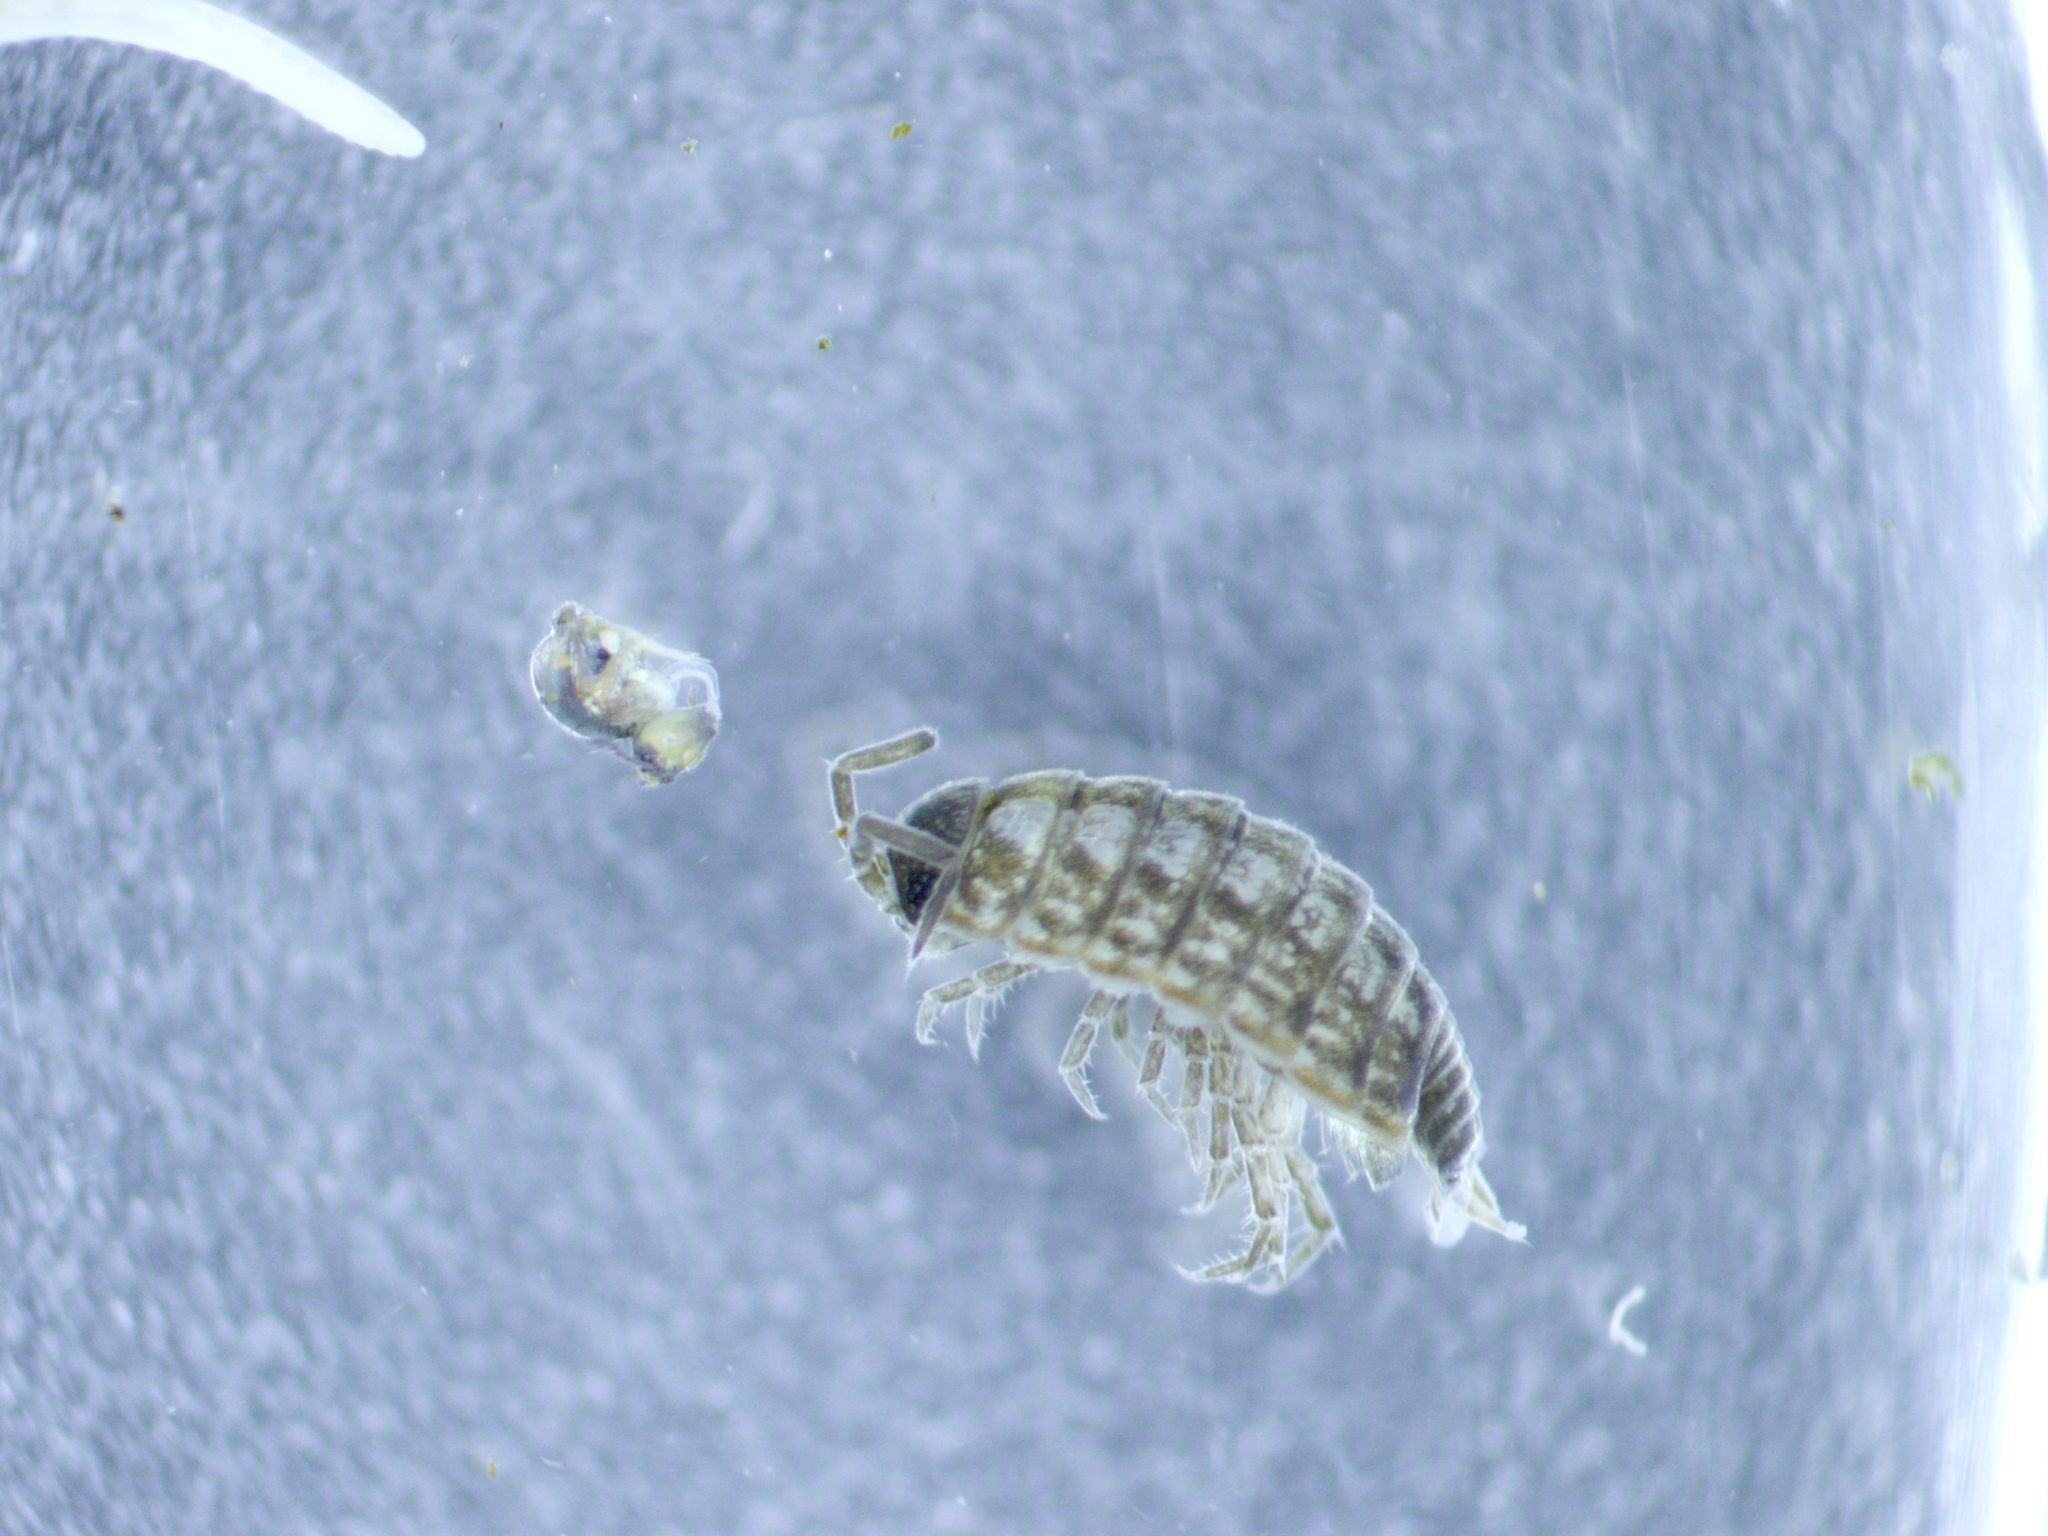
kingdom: Animalia
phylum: Arthropoda
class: Malacostraca
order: Isopoda
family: Philosciidae
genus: Philoscia
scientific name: Philoscia muscorum
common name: Common striped woodlouse
